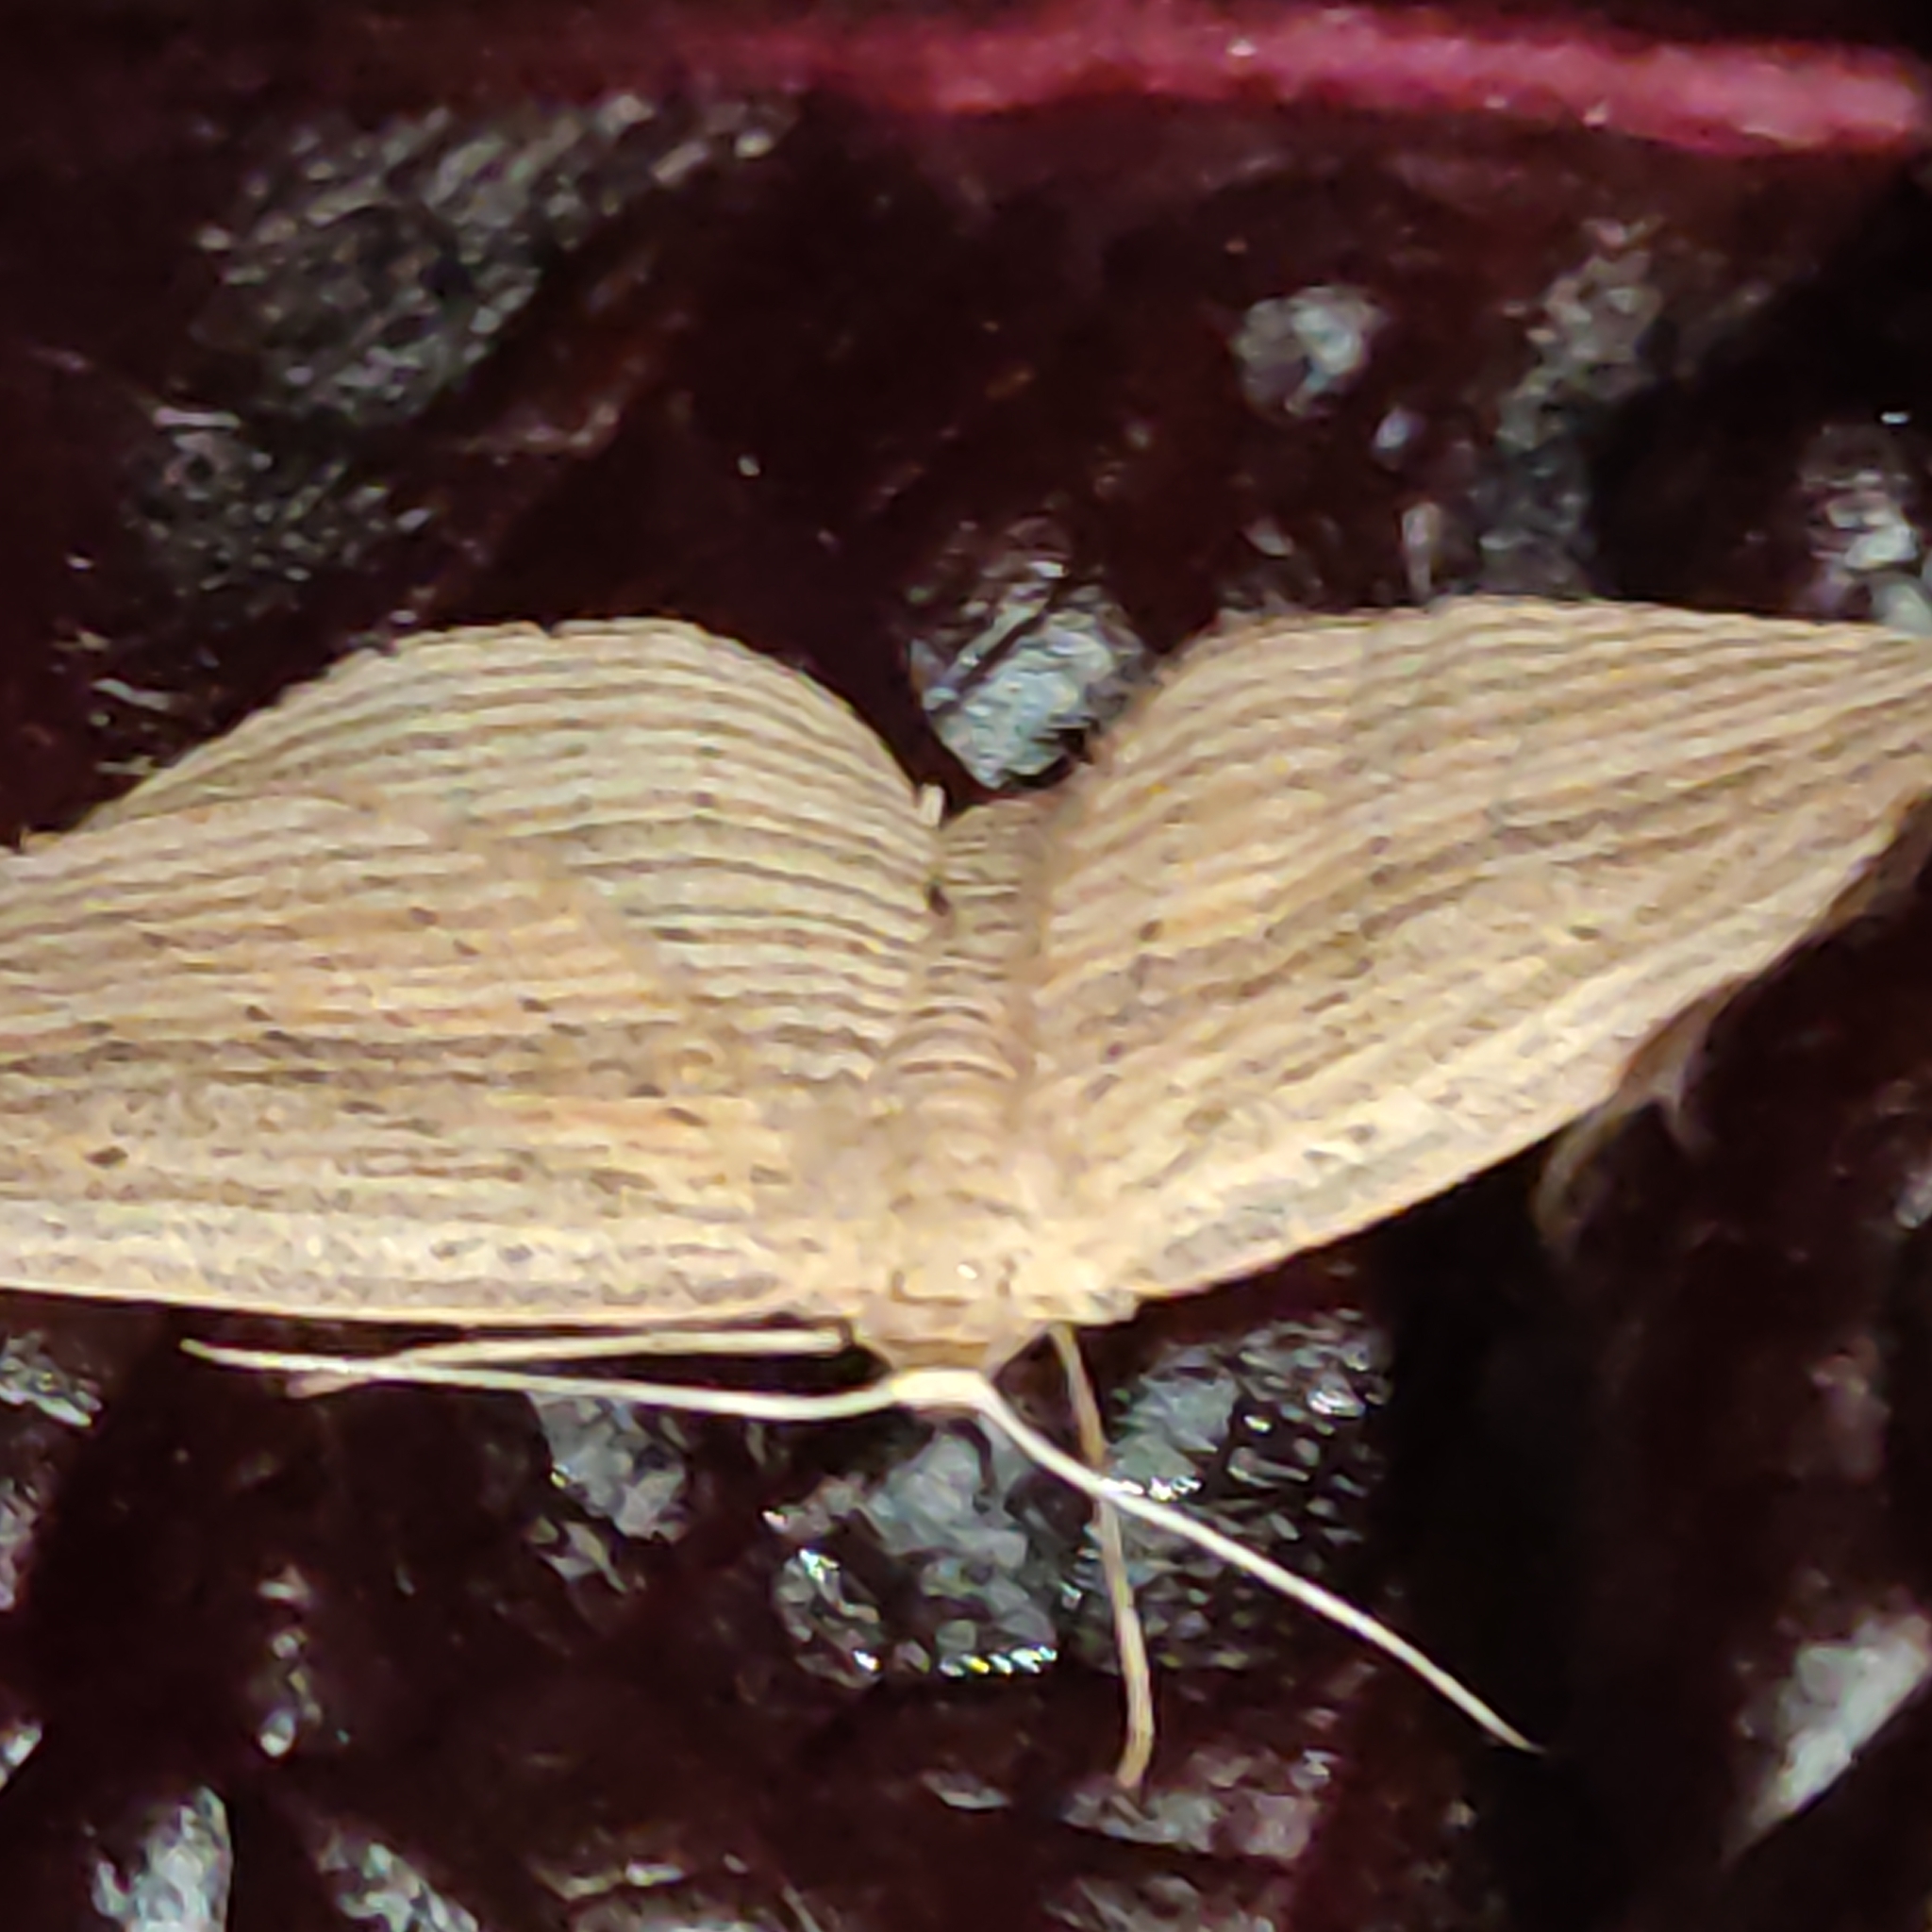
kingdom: Animalia
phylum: Arthropoda
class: Insecta
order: Lepidoptera
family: Geometridae
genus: Epiphryne
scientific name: Epiphryne verriculata
